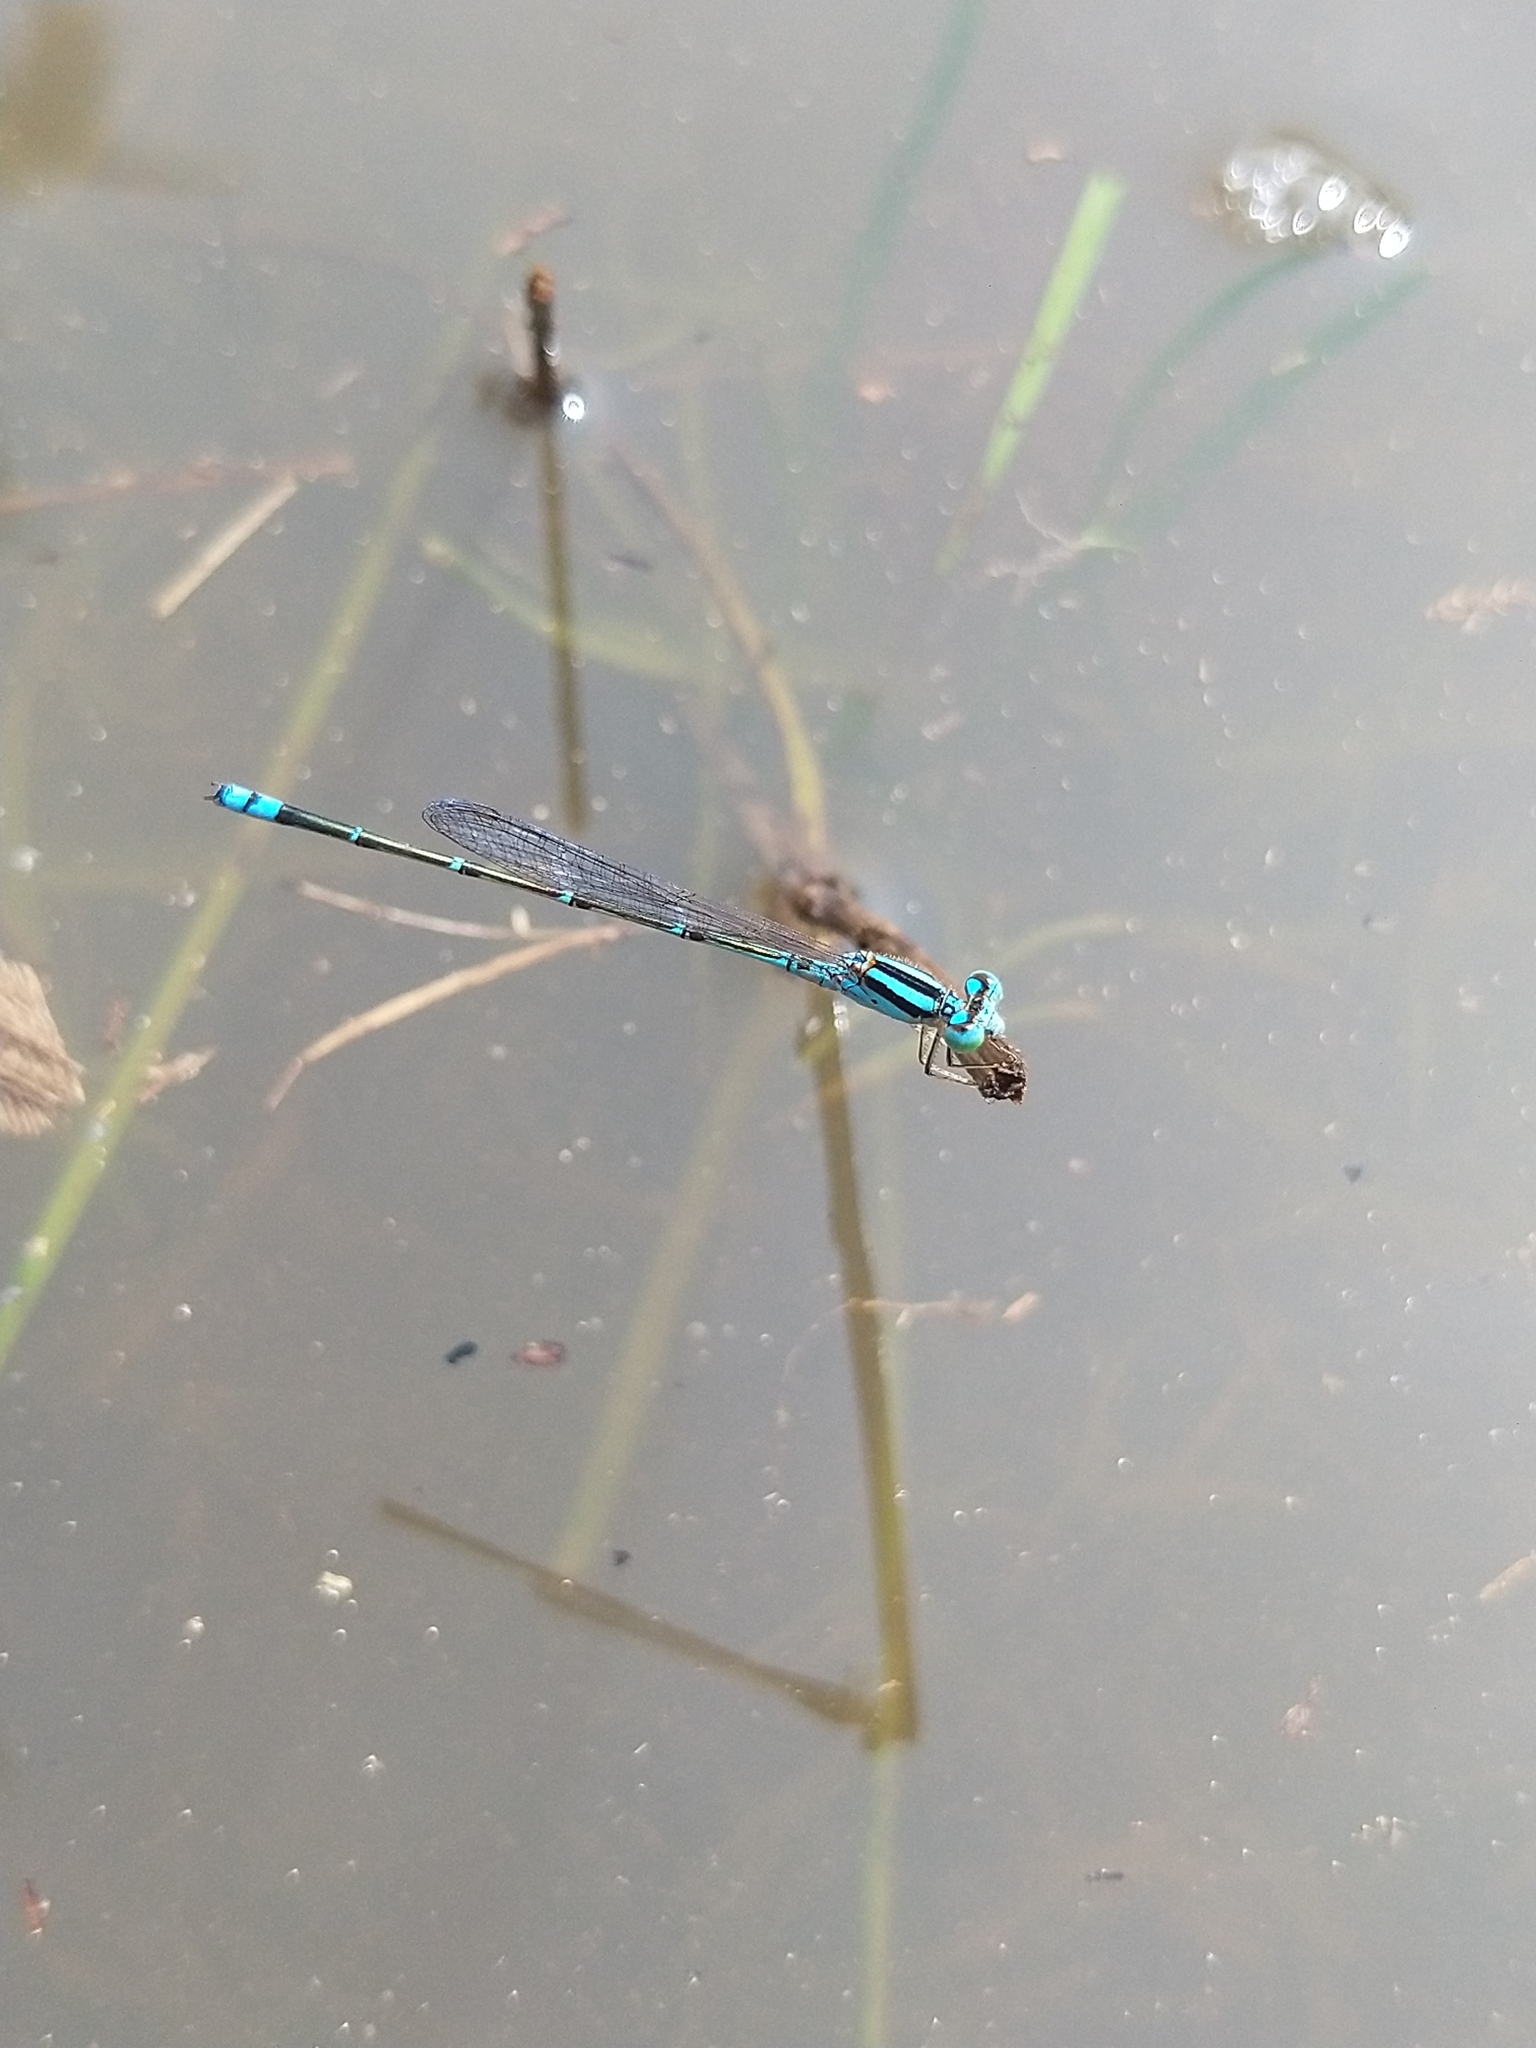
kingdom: Animalia
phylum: Arthropoda
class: Insecta
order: Odonata
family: Coenagrionidae
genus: Pseudagrion
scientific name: Pseudagrion microcephalum
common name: Blue riverdamsel
